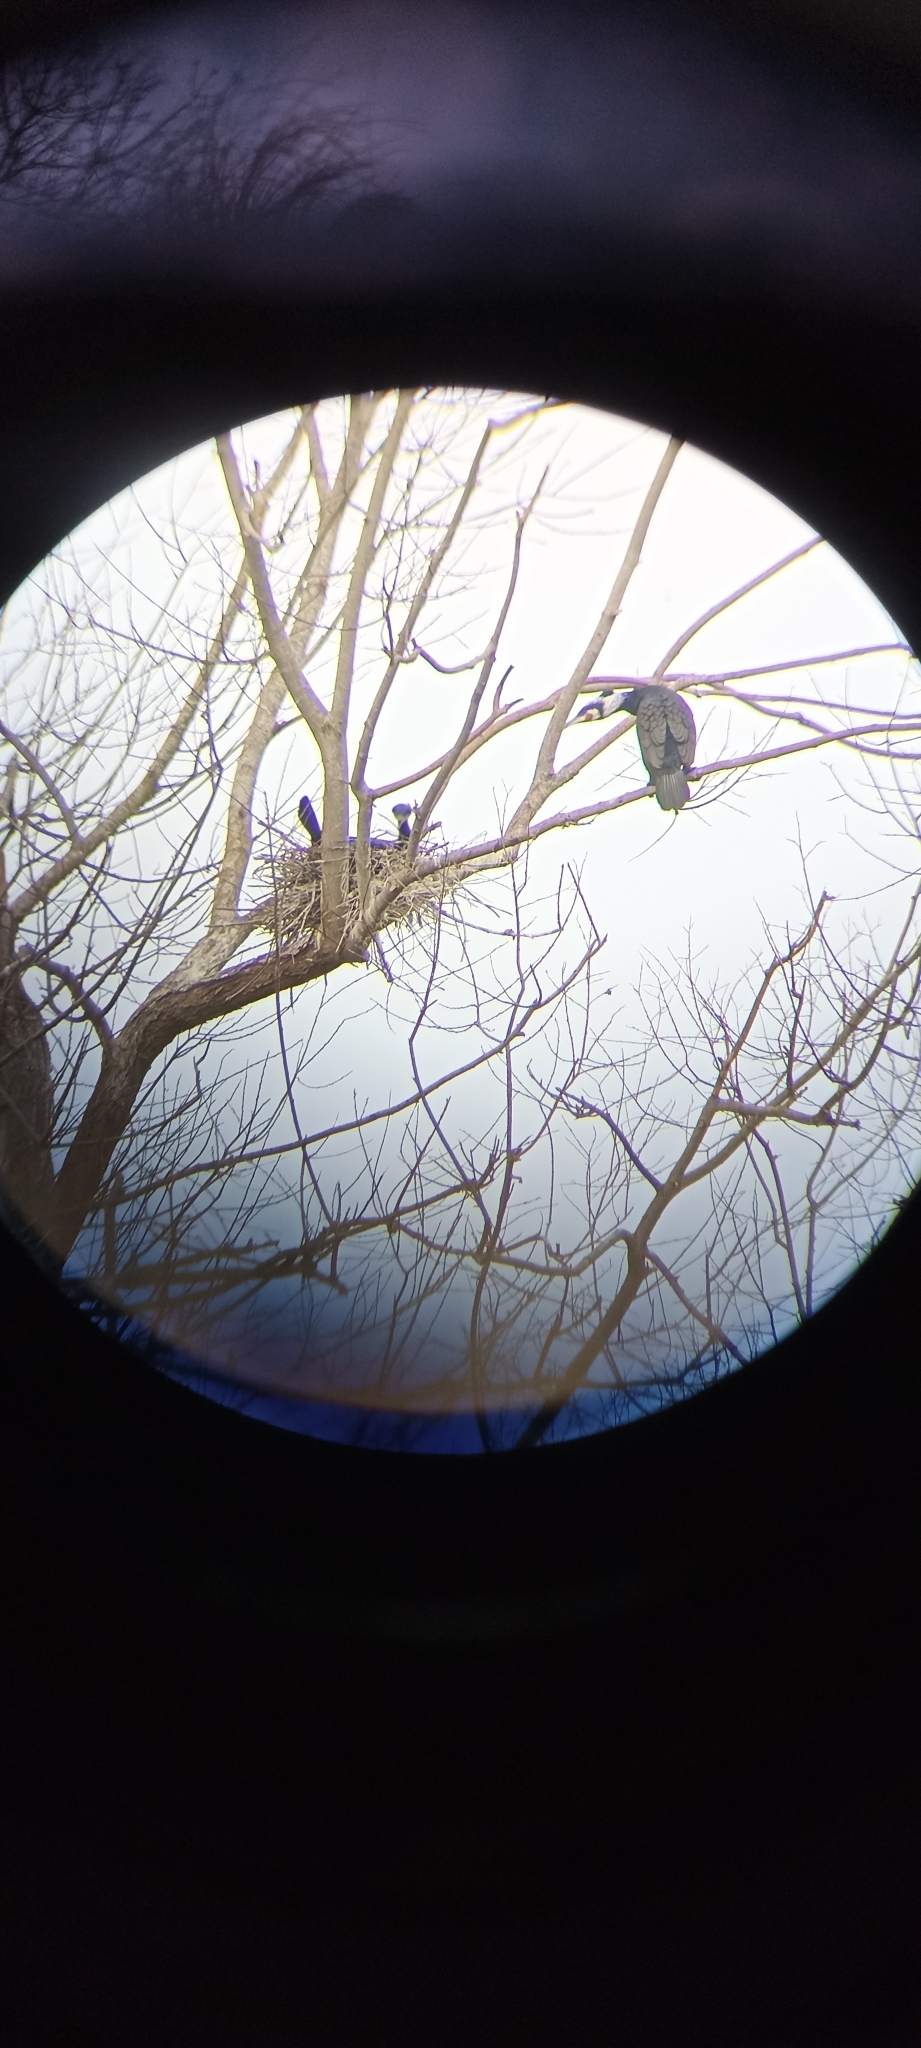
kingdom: Animalia
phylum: Chordata
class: Aves
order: Suliformes
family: Phalacrocoracidae
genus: Phalacrocorax
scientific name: Phalacrocorax carbo
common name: Great cormorant
